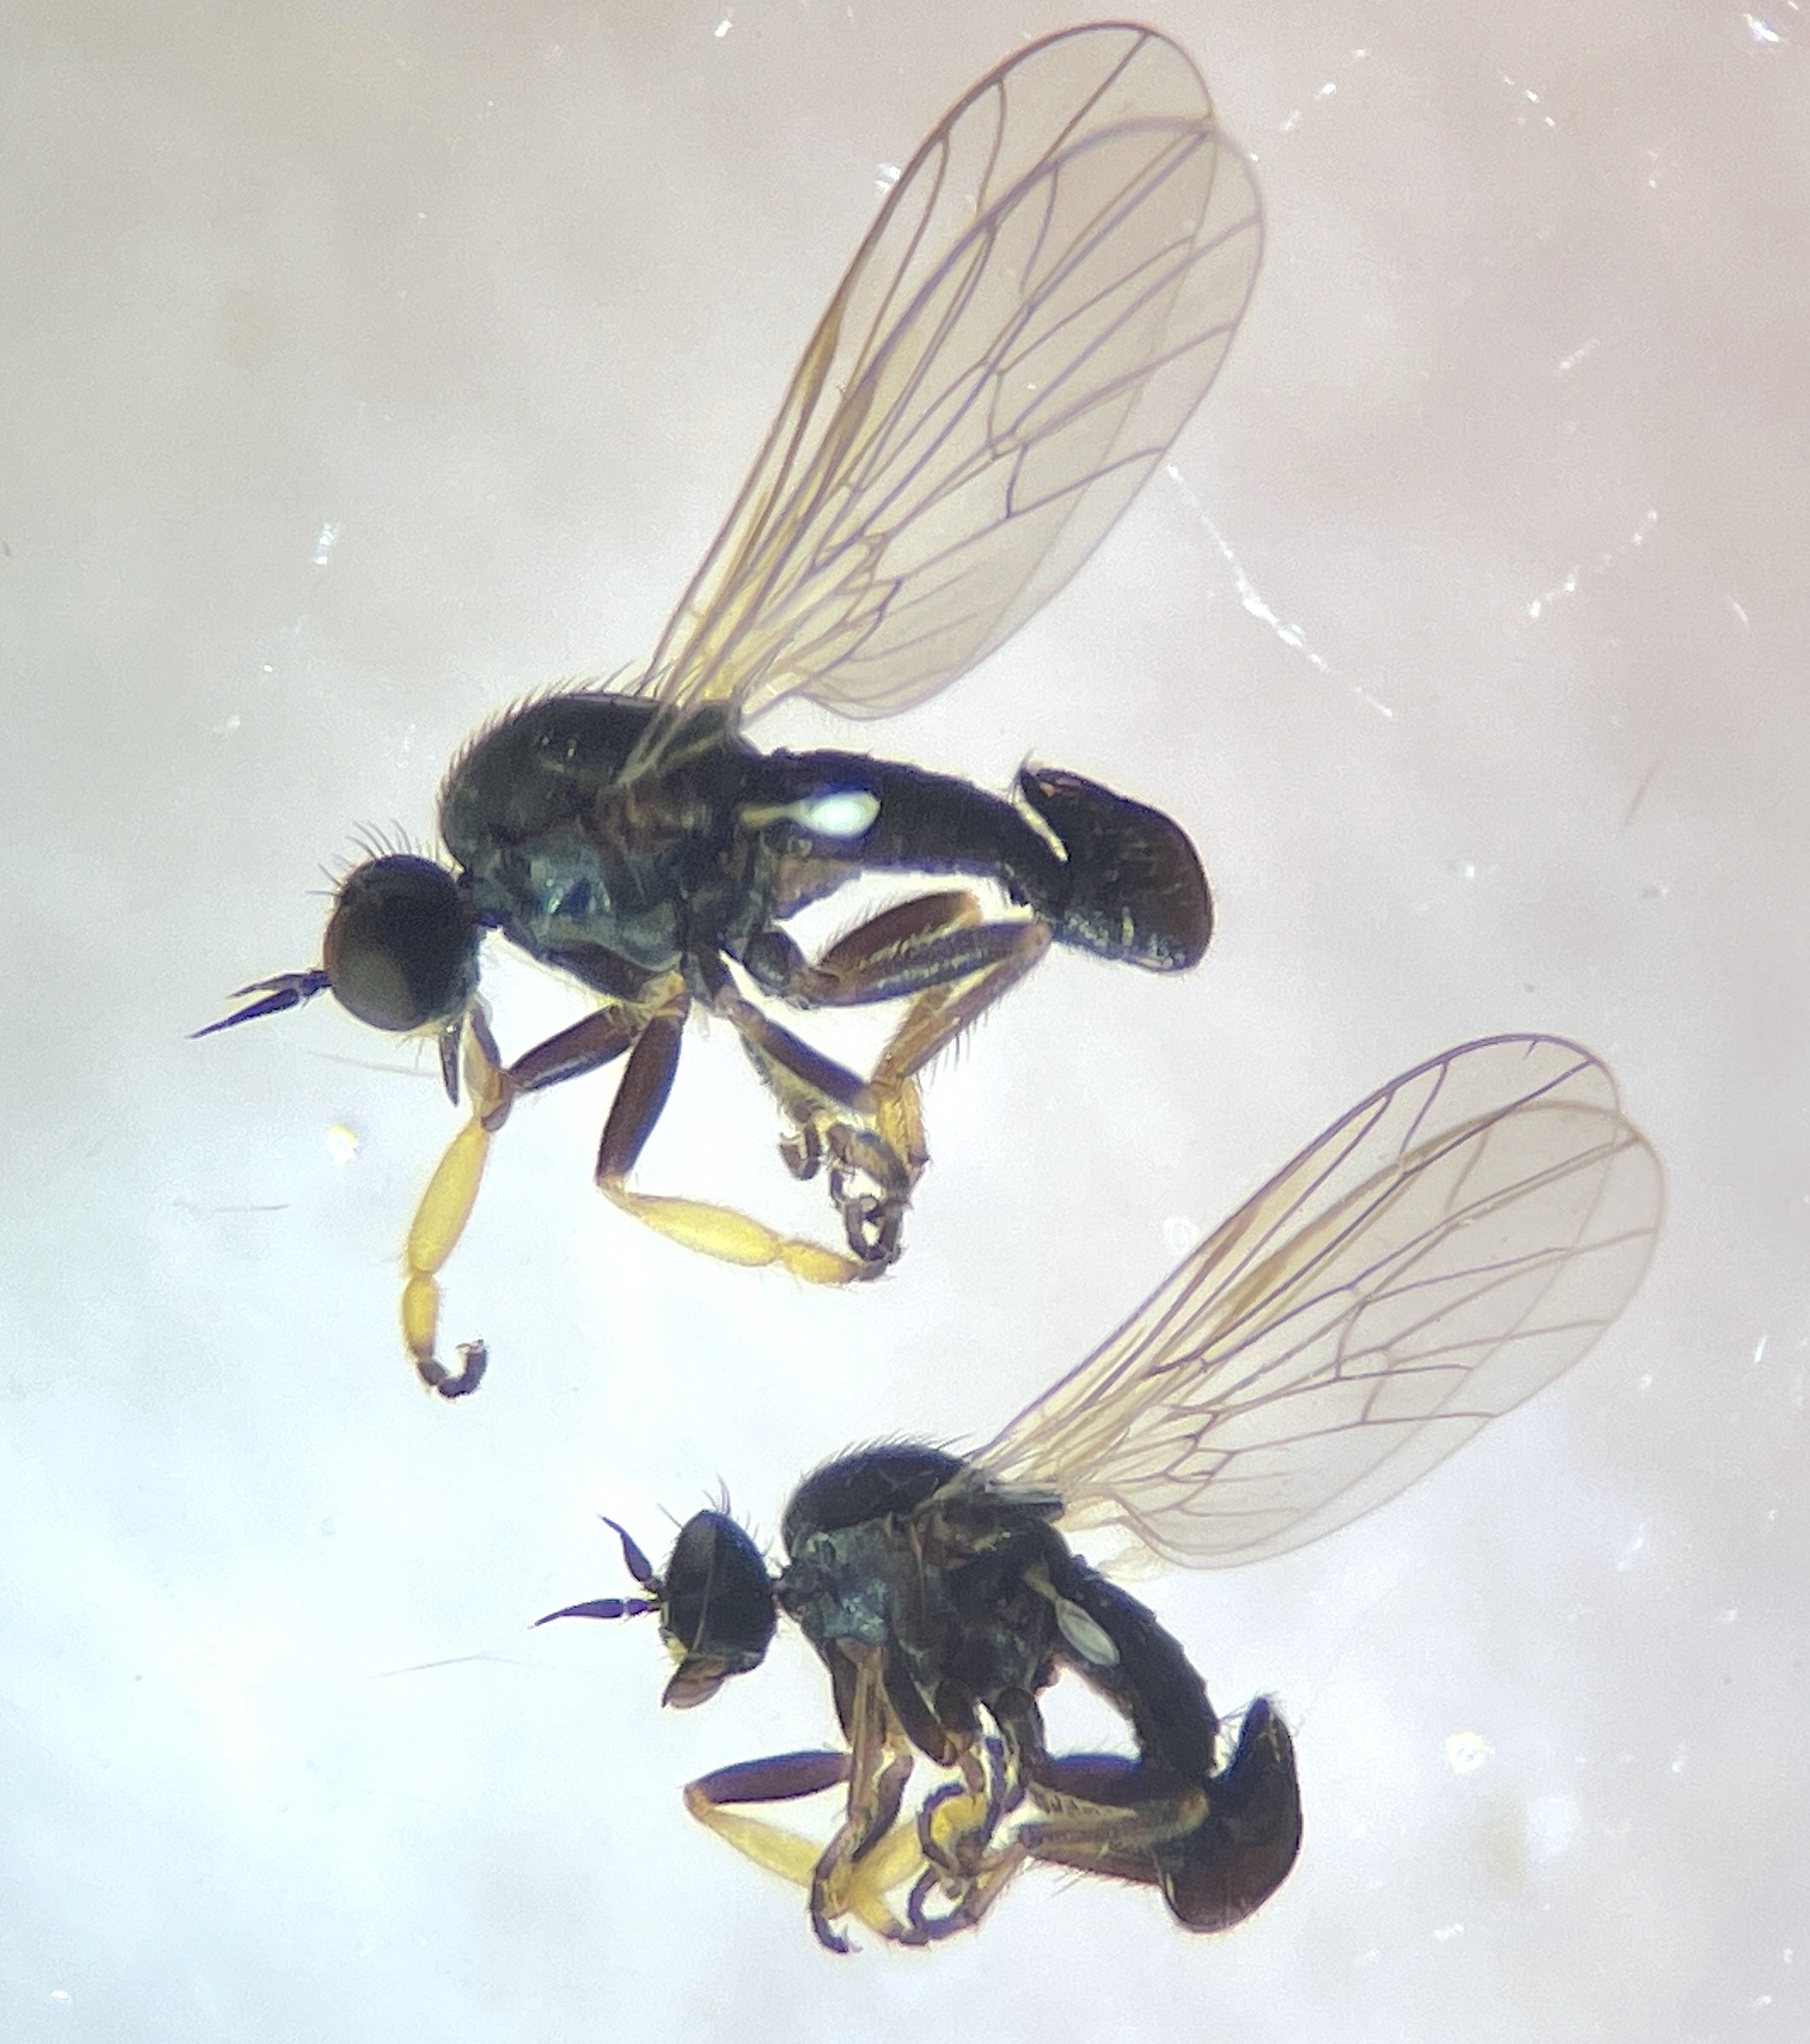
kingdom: Animalia
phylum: Arthropoda
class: Insecta
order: Diptera
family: Empididae
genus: Hilarempis
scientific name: Hilarempis minthaphila
